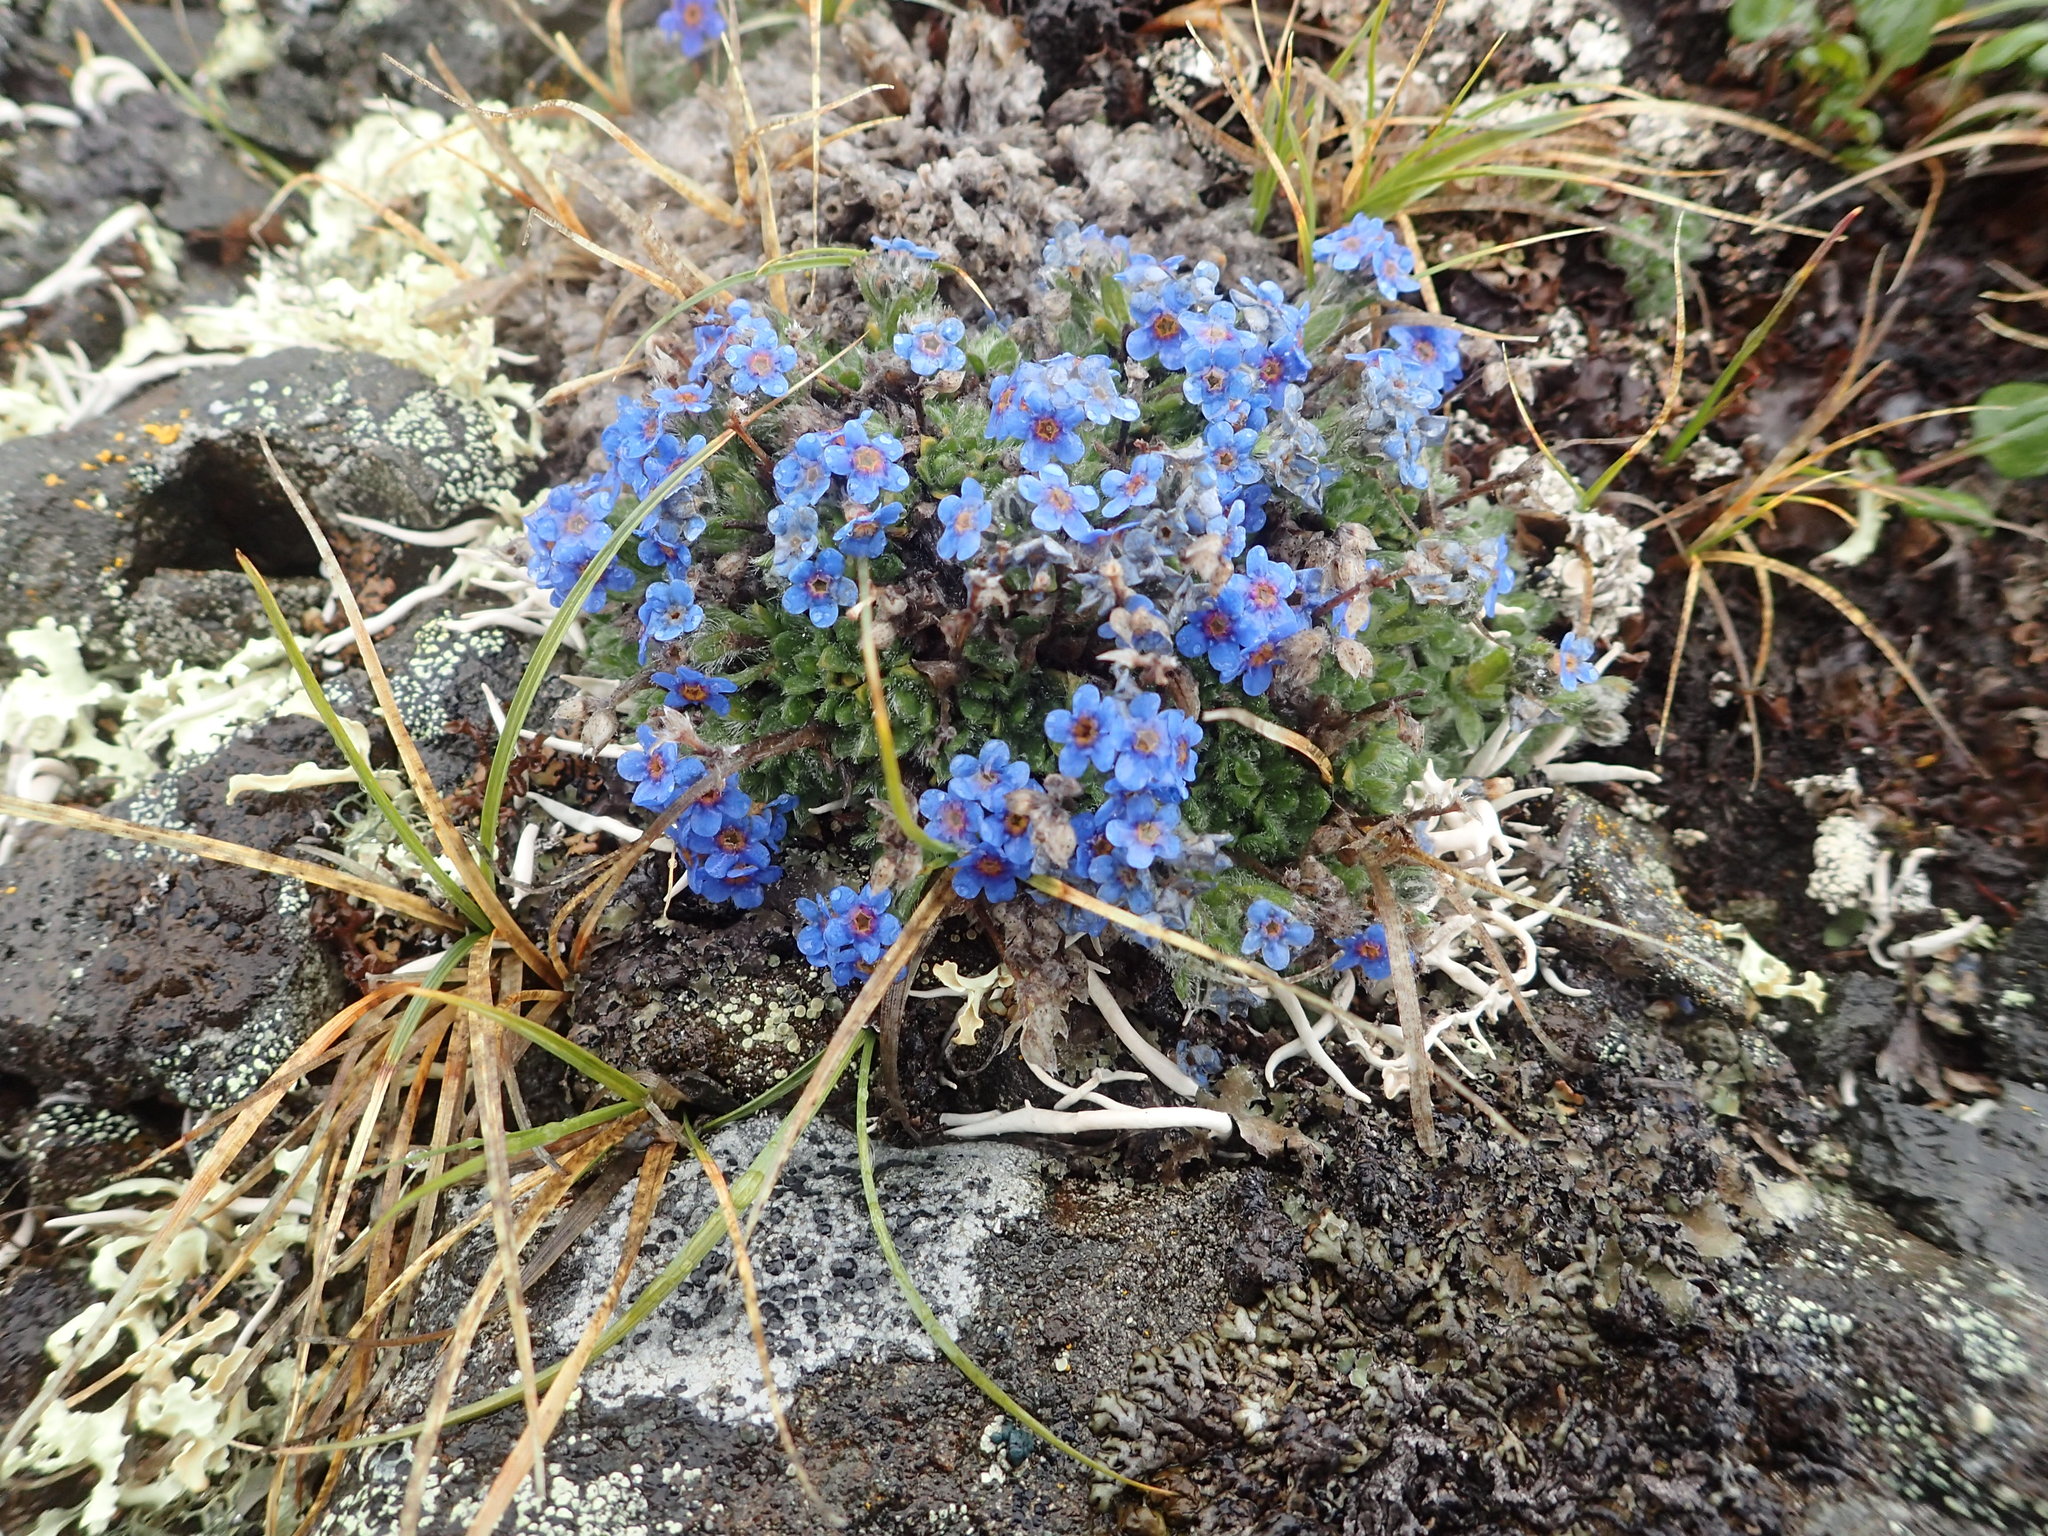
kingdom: Plantae
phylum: Tracheophyta
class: Magnoliopsida
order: Boraginales
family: Boraginaceae
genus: Eritrichium
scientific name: Eritrichium aretioides
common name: Arctic-alpine forget-me-not
